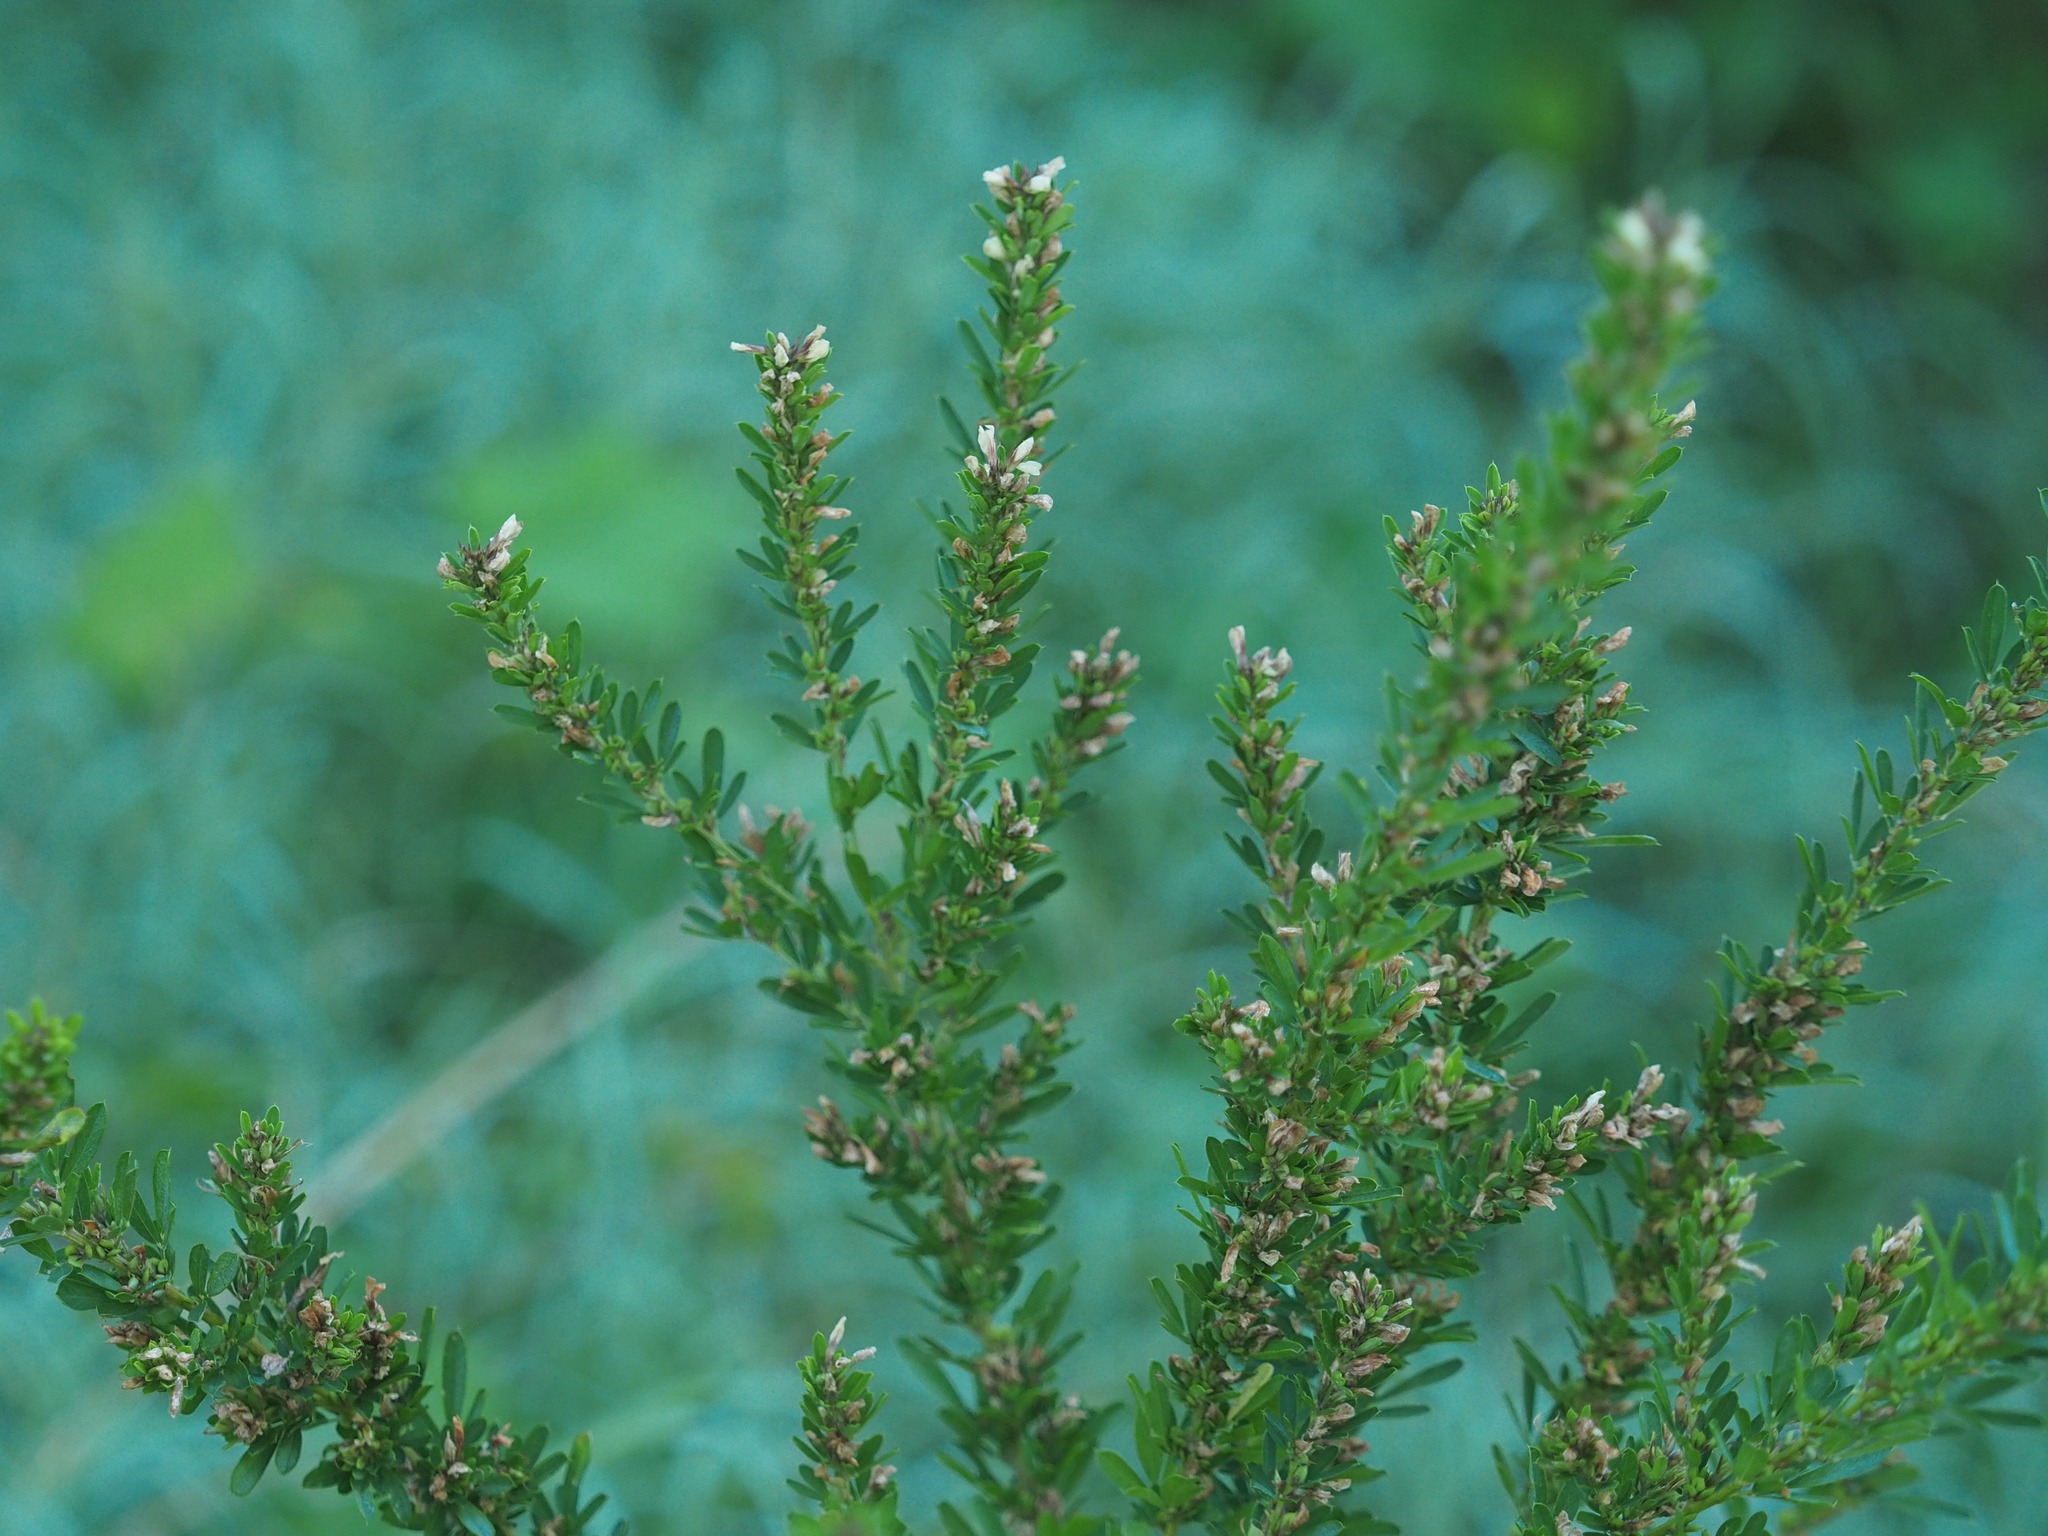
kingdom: Plantae
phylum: Tracheophyta
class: Magnoliopsida
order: Fabales
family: Fabaceae
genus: Lespedeza
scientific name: Lespedeza cuneata
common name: Chinese bush-clover
